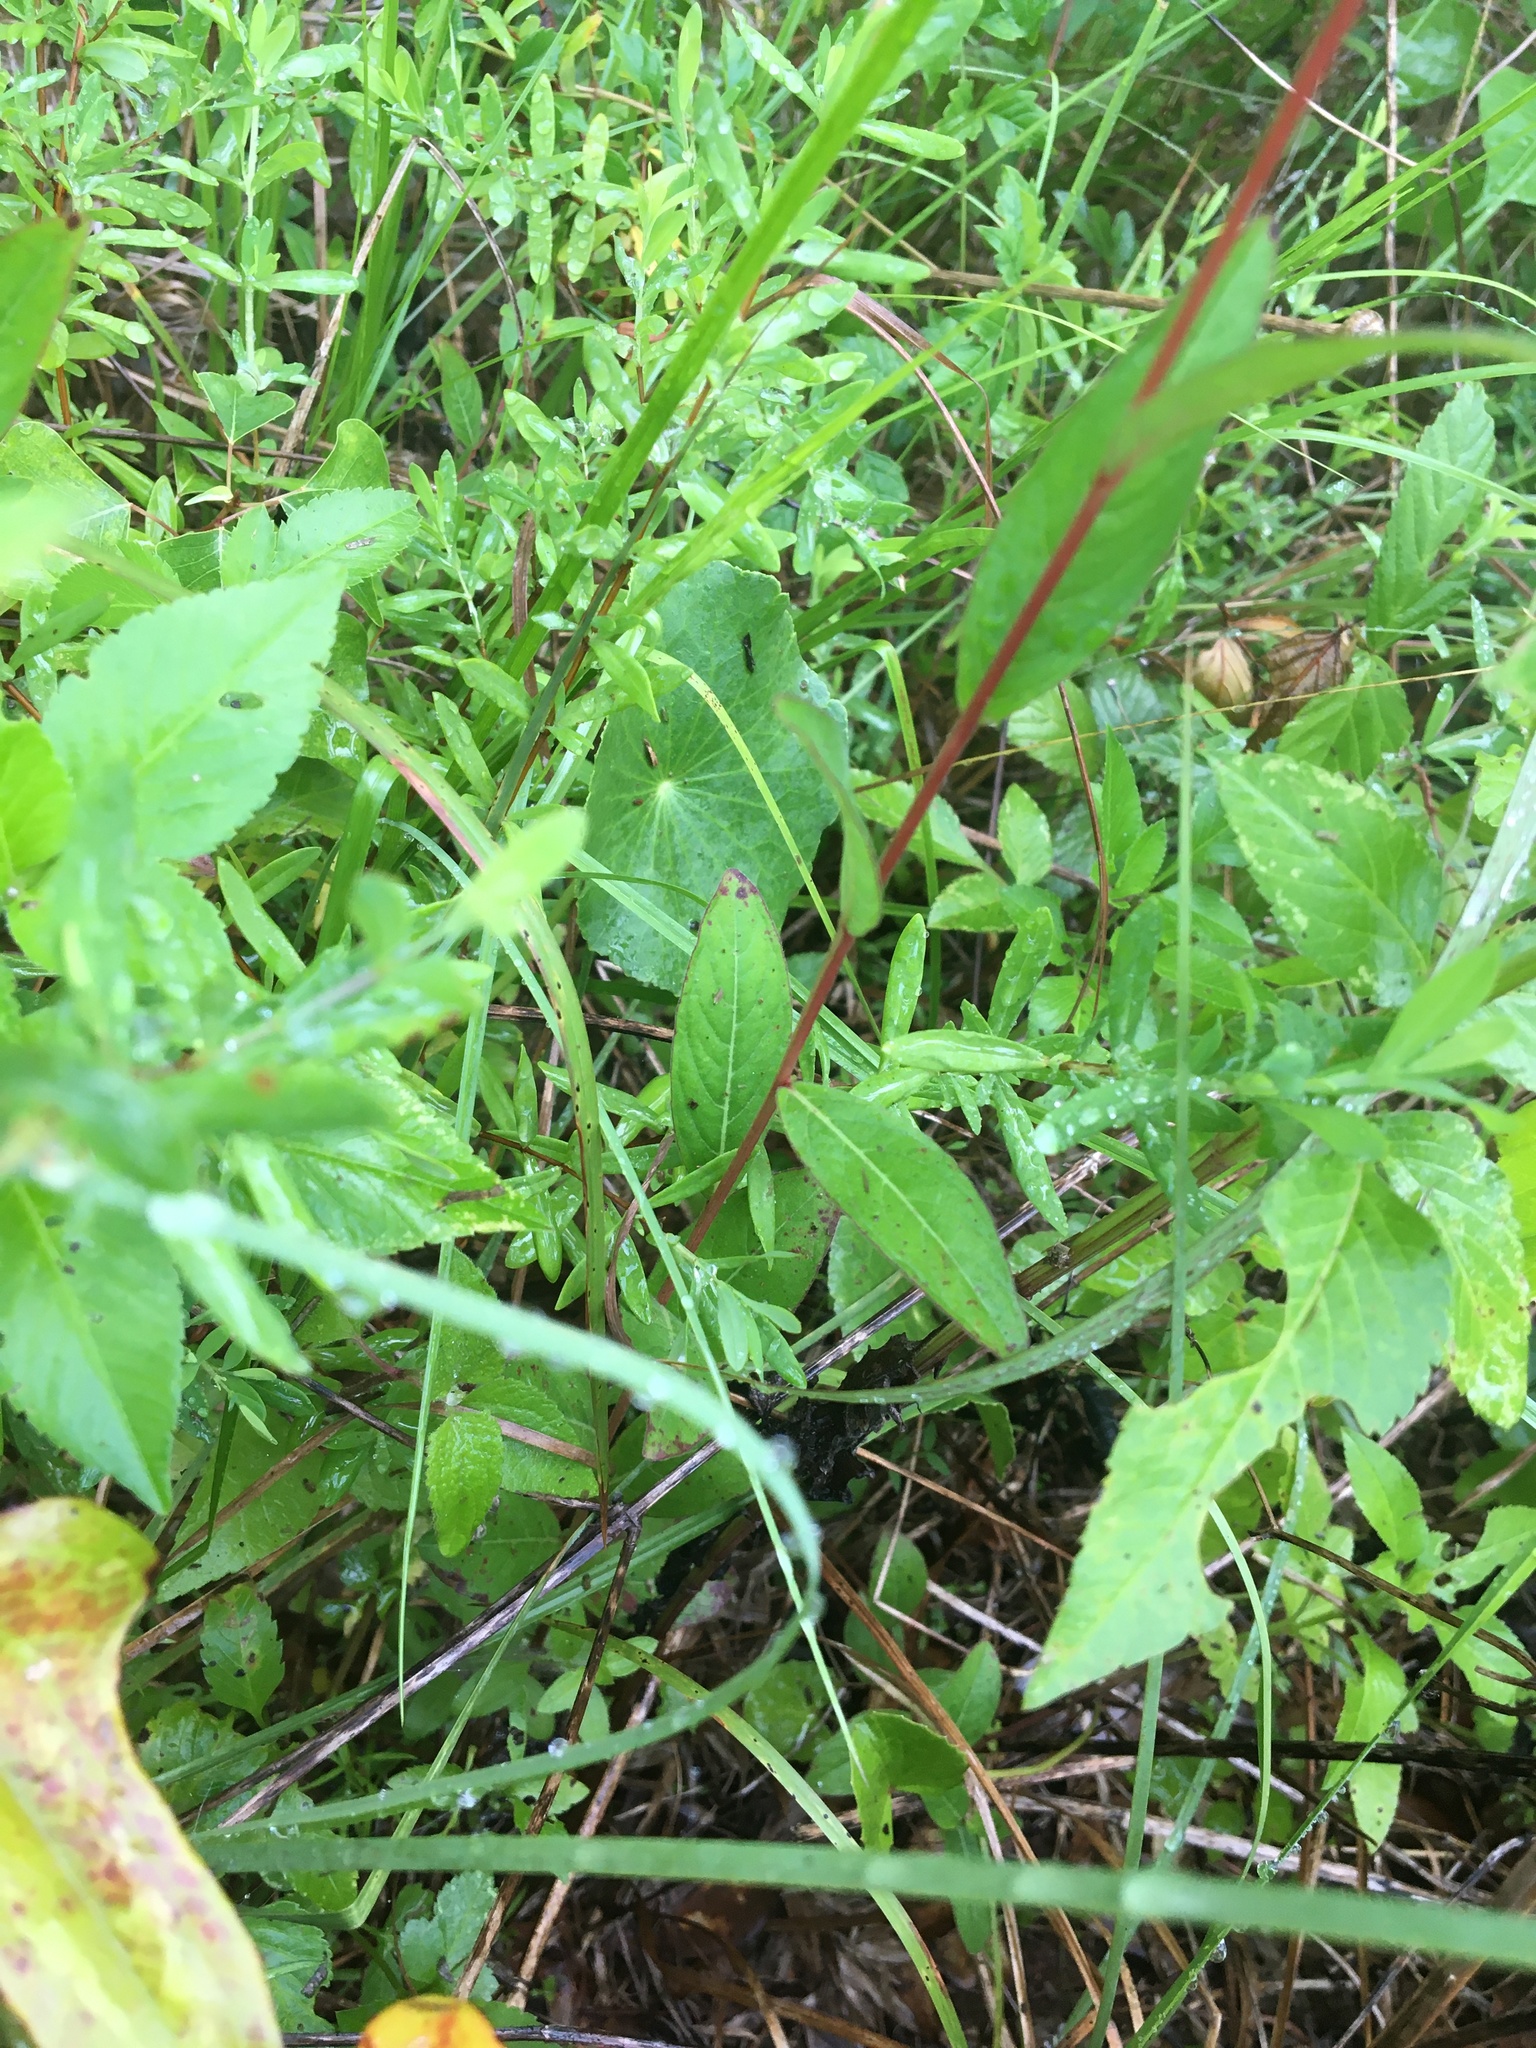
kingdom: Plantae
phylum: Tracheophyta
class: Magnoliopsida
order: Myrtales
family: Onagraceae
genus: Ludwigia
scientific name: Ludwigia virgata
